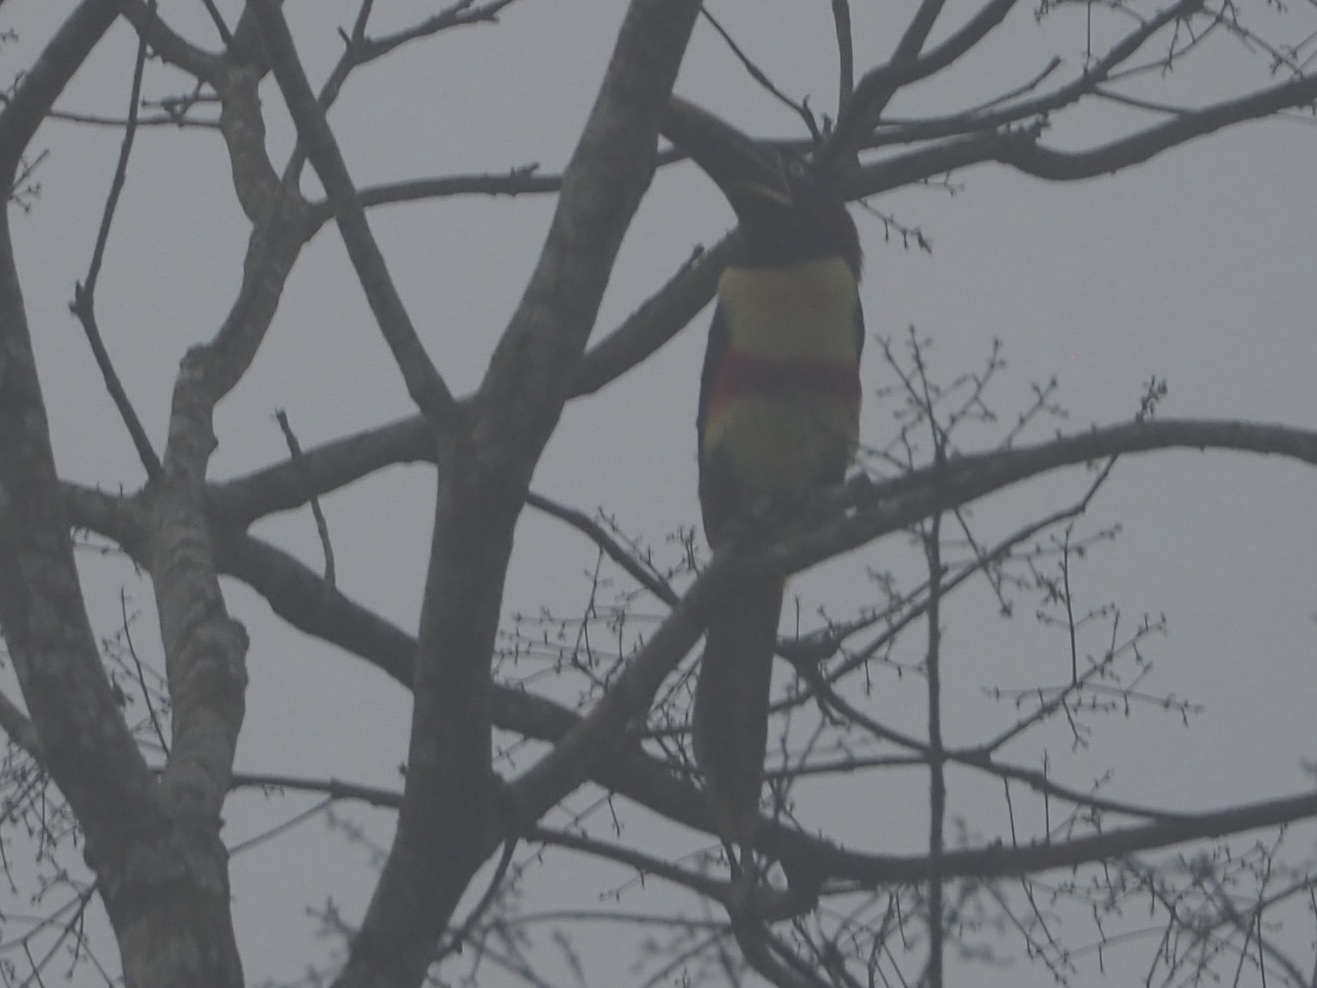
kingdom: Animalia
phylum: Chordata
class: Aves
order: Piciformes
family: Ramphastidae
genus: Ramphastos
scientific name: Ramphastos tucanus
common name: White-throated toucan
